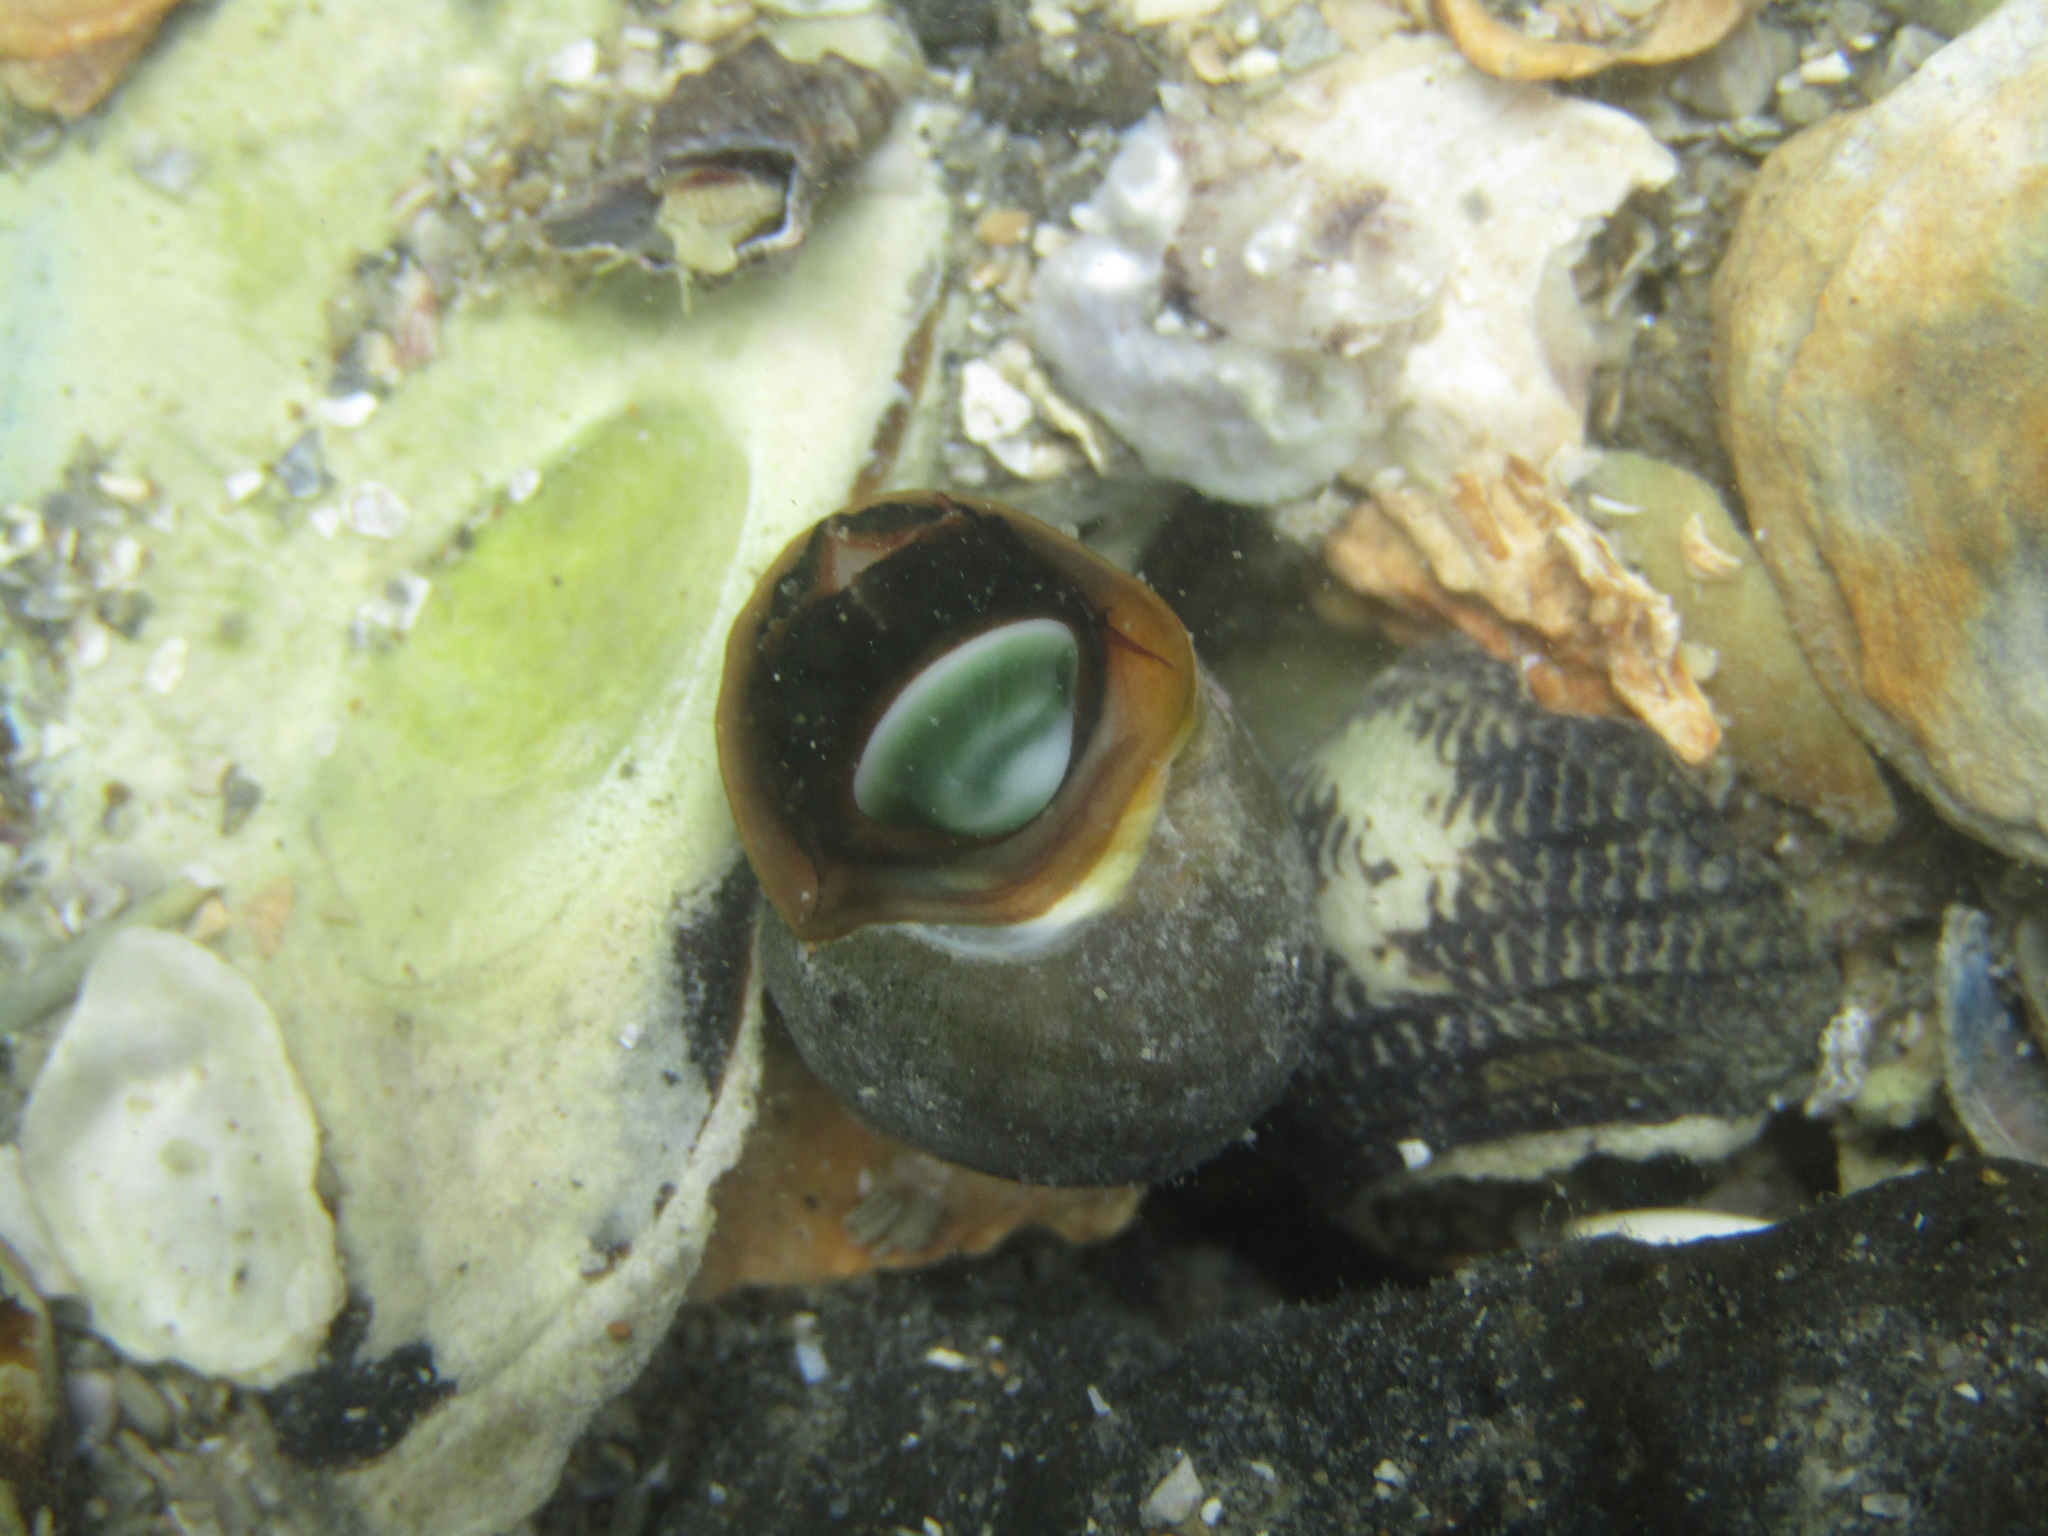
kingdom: Animalia
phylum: Mollusca
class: Gastropoda
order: Trochida
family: Turbinidae
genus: Lunella
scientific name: Lunella smaragda
